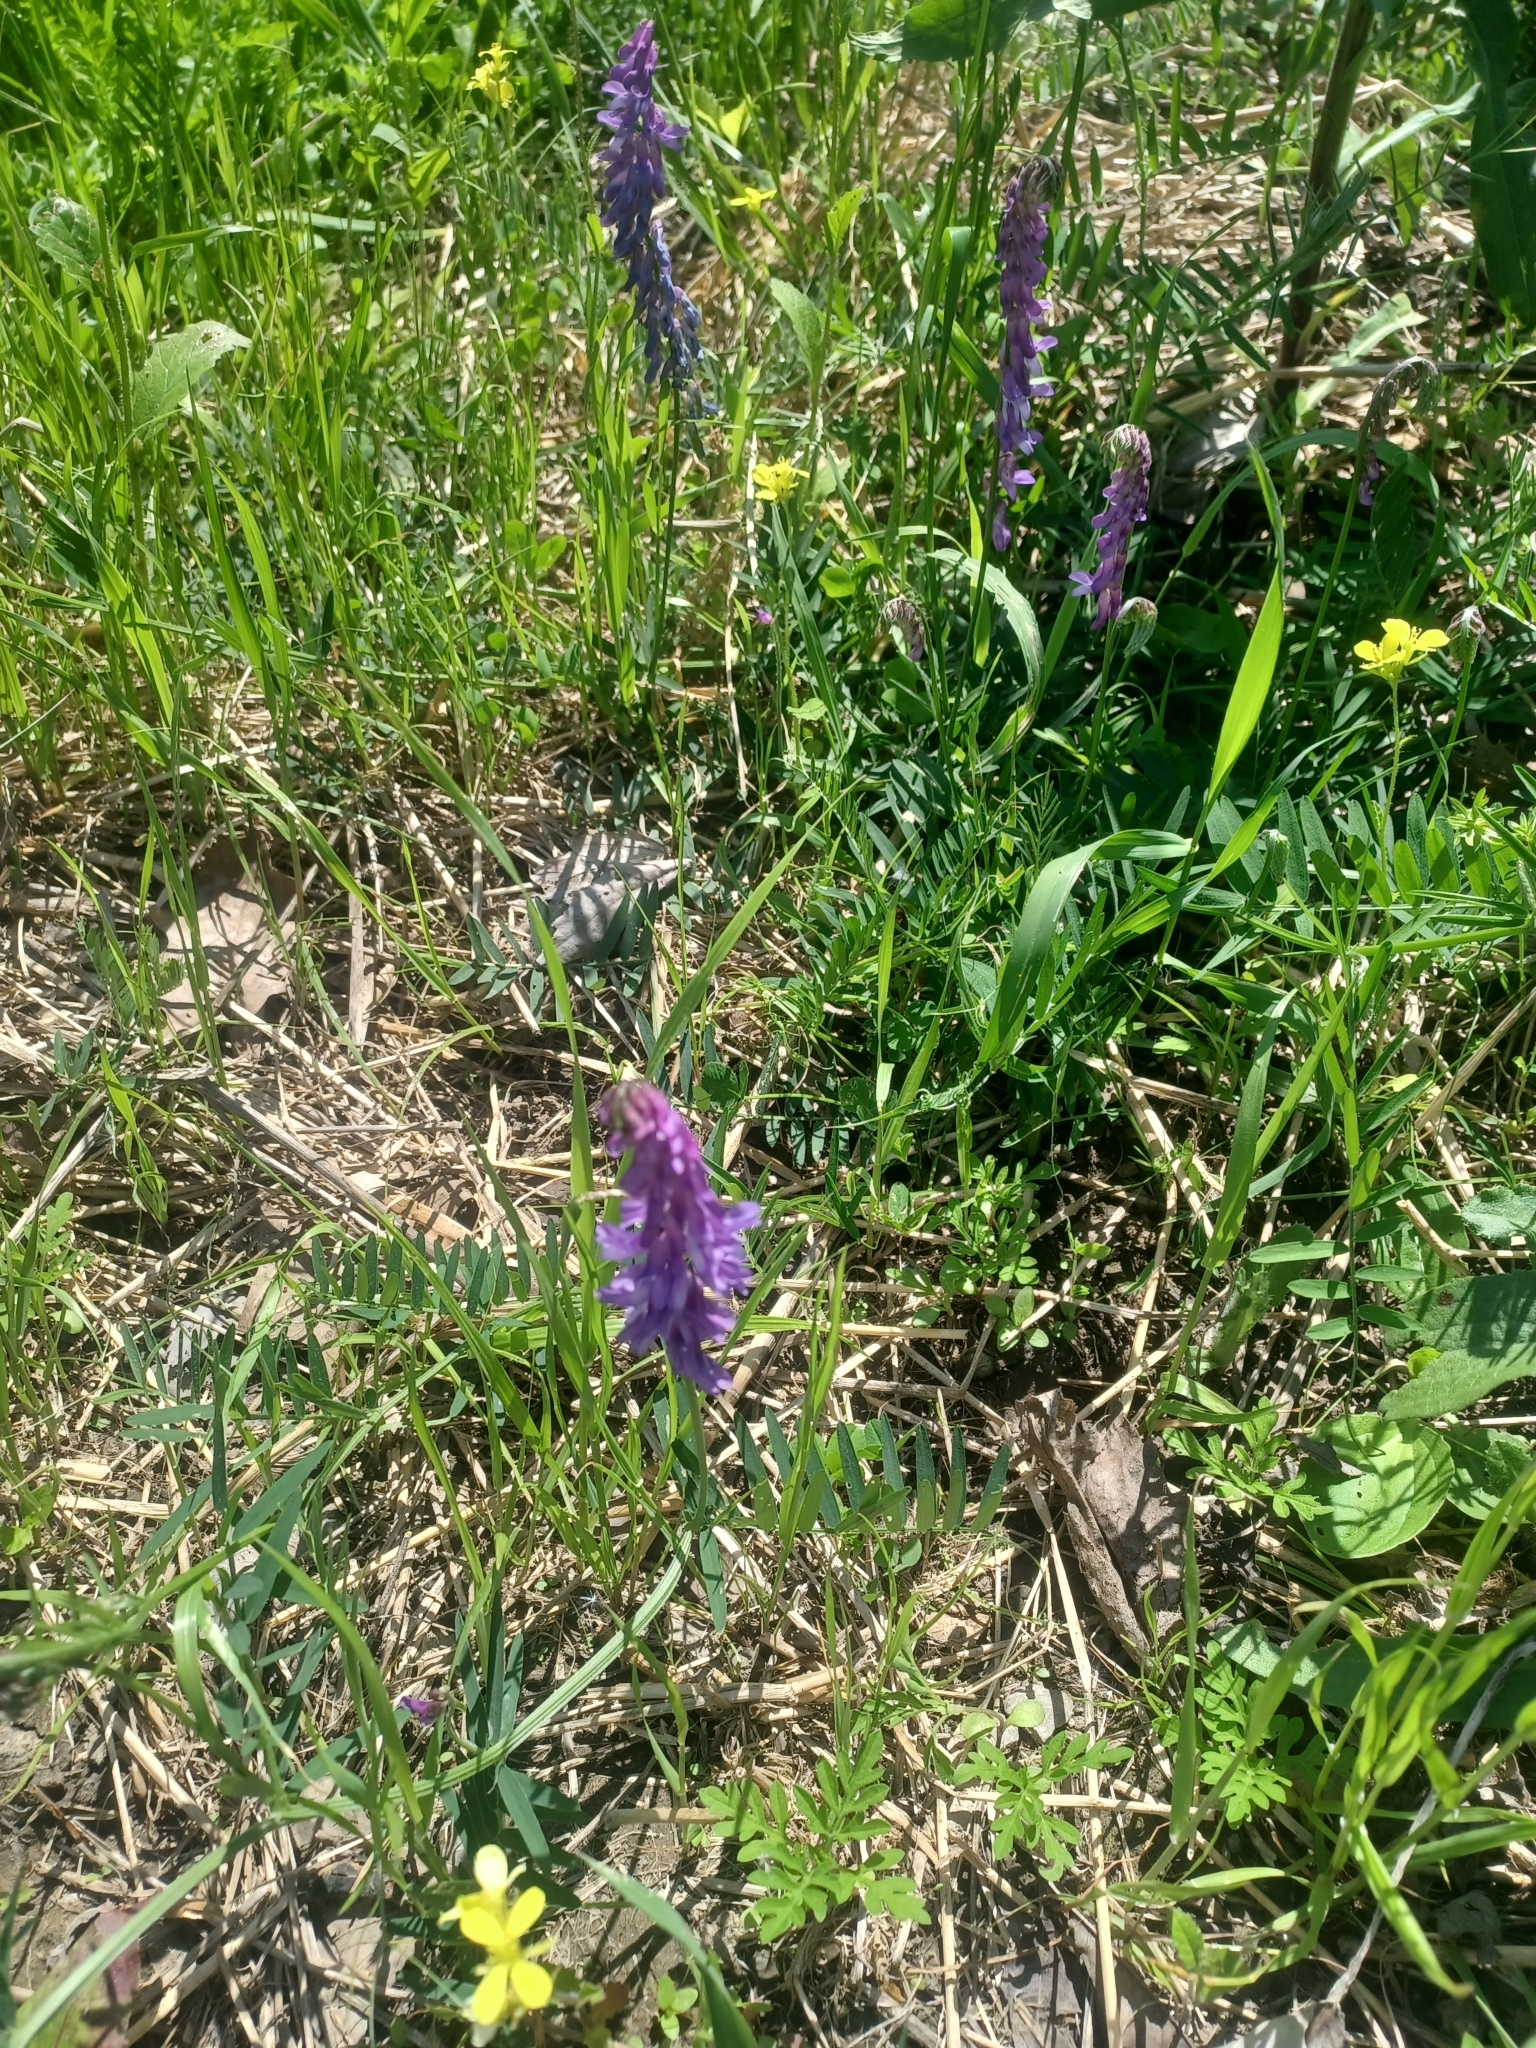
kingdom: Plantae
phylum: Tracheophyta
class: Magnoliopsida
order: Fabales
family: Fabaceae
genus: Vicia
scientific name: Vicia cracca
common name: Bird vetch
